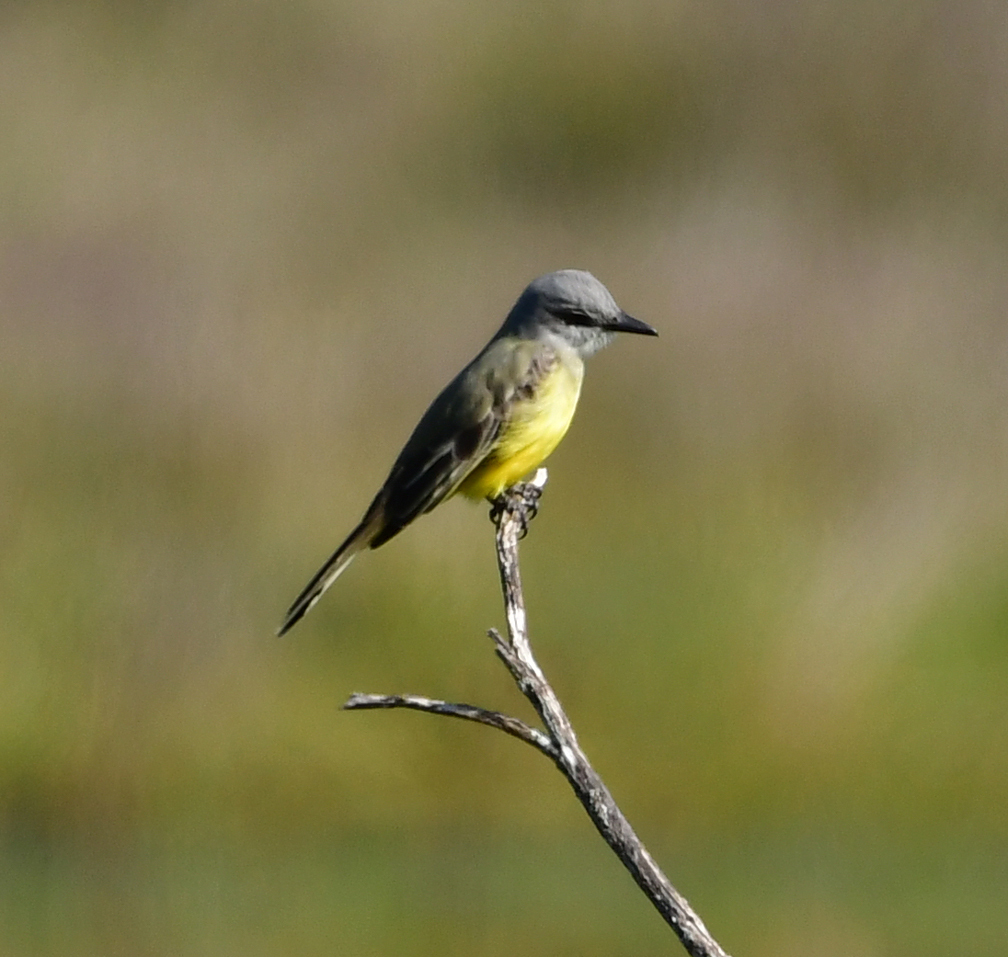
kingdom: Animalia
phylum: Chordata
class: Aves
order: Passeriformes
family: Tyrannidae
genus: Tyrannus
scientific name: Tyrannus melancholicus
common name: Tropical kingbird
